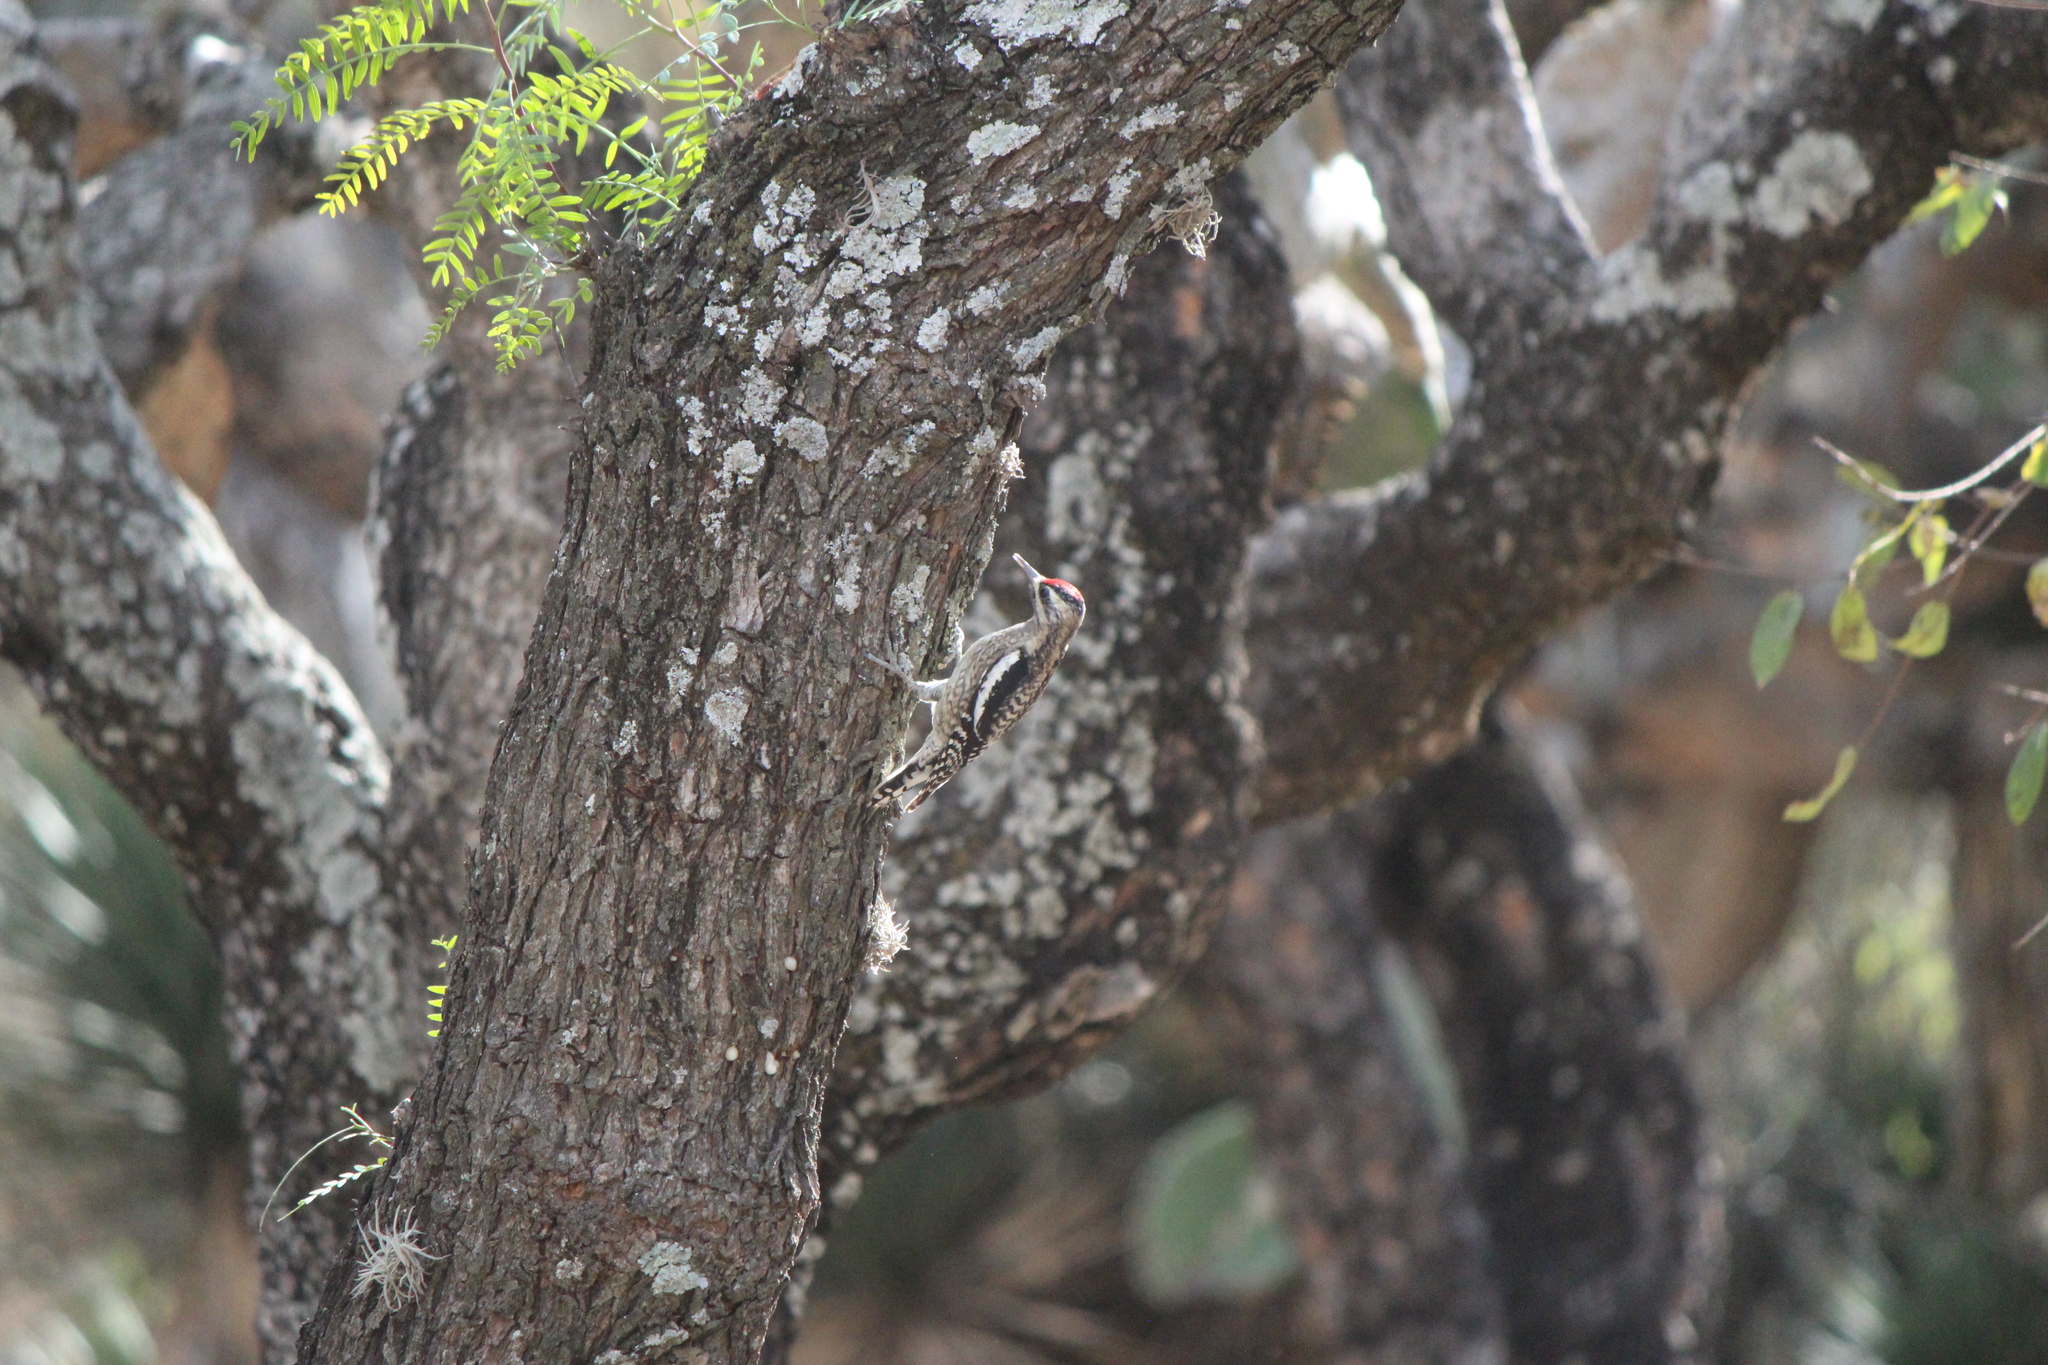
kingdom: Animalia
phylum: Chordata
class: Aves
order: Piciformes
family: Picidae
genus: Sphyrapicus
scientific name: Sphyrapicus varius
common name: Yellow-bellied sapsucker
